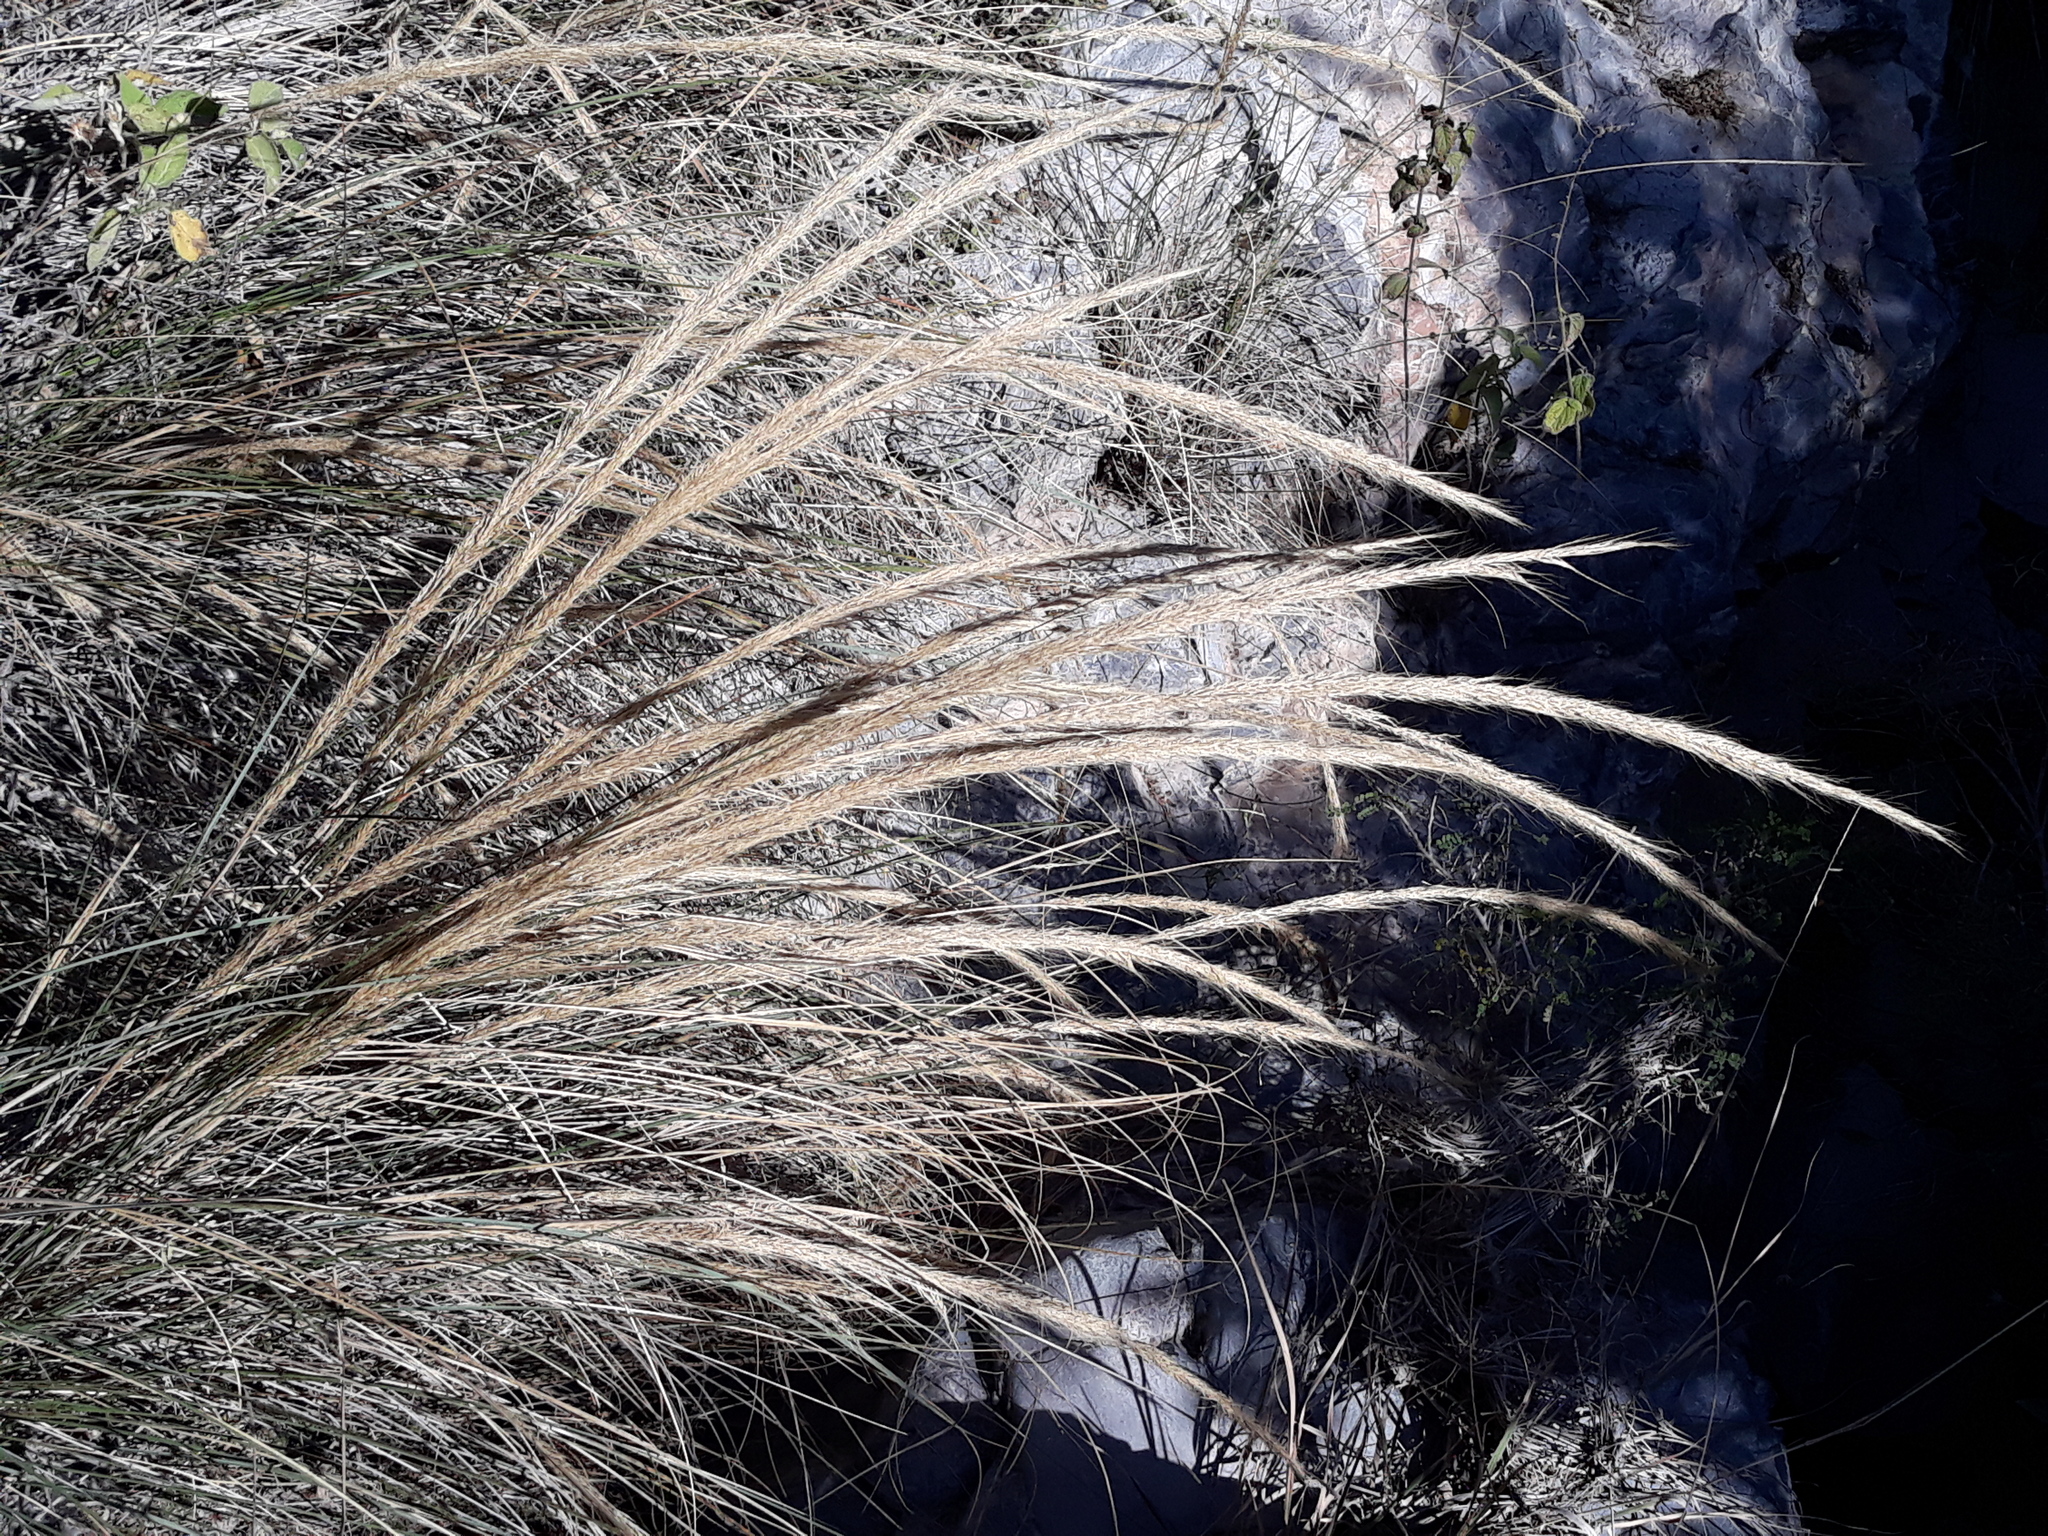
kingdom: Plantae
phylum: Tracheophyta
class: Liliopsida
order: Poales
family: Poaceae
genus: Muhlenbergia
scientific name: Muhlenbergia pubescens
